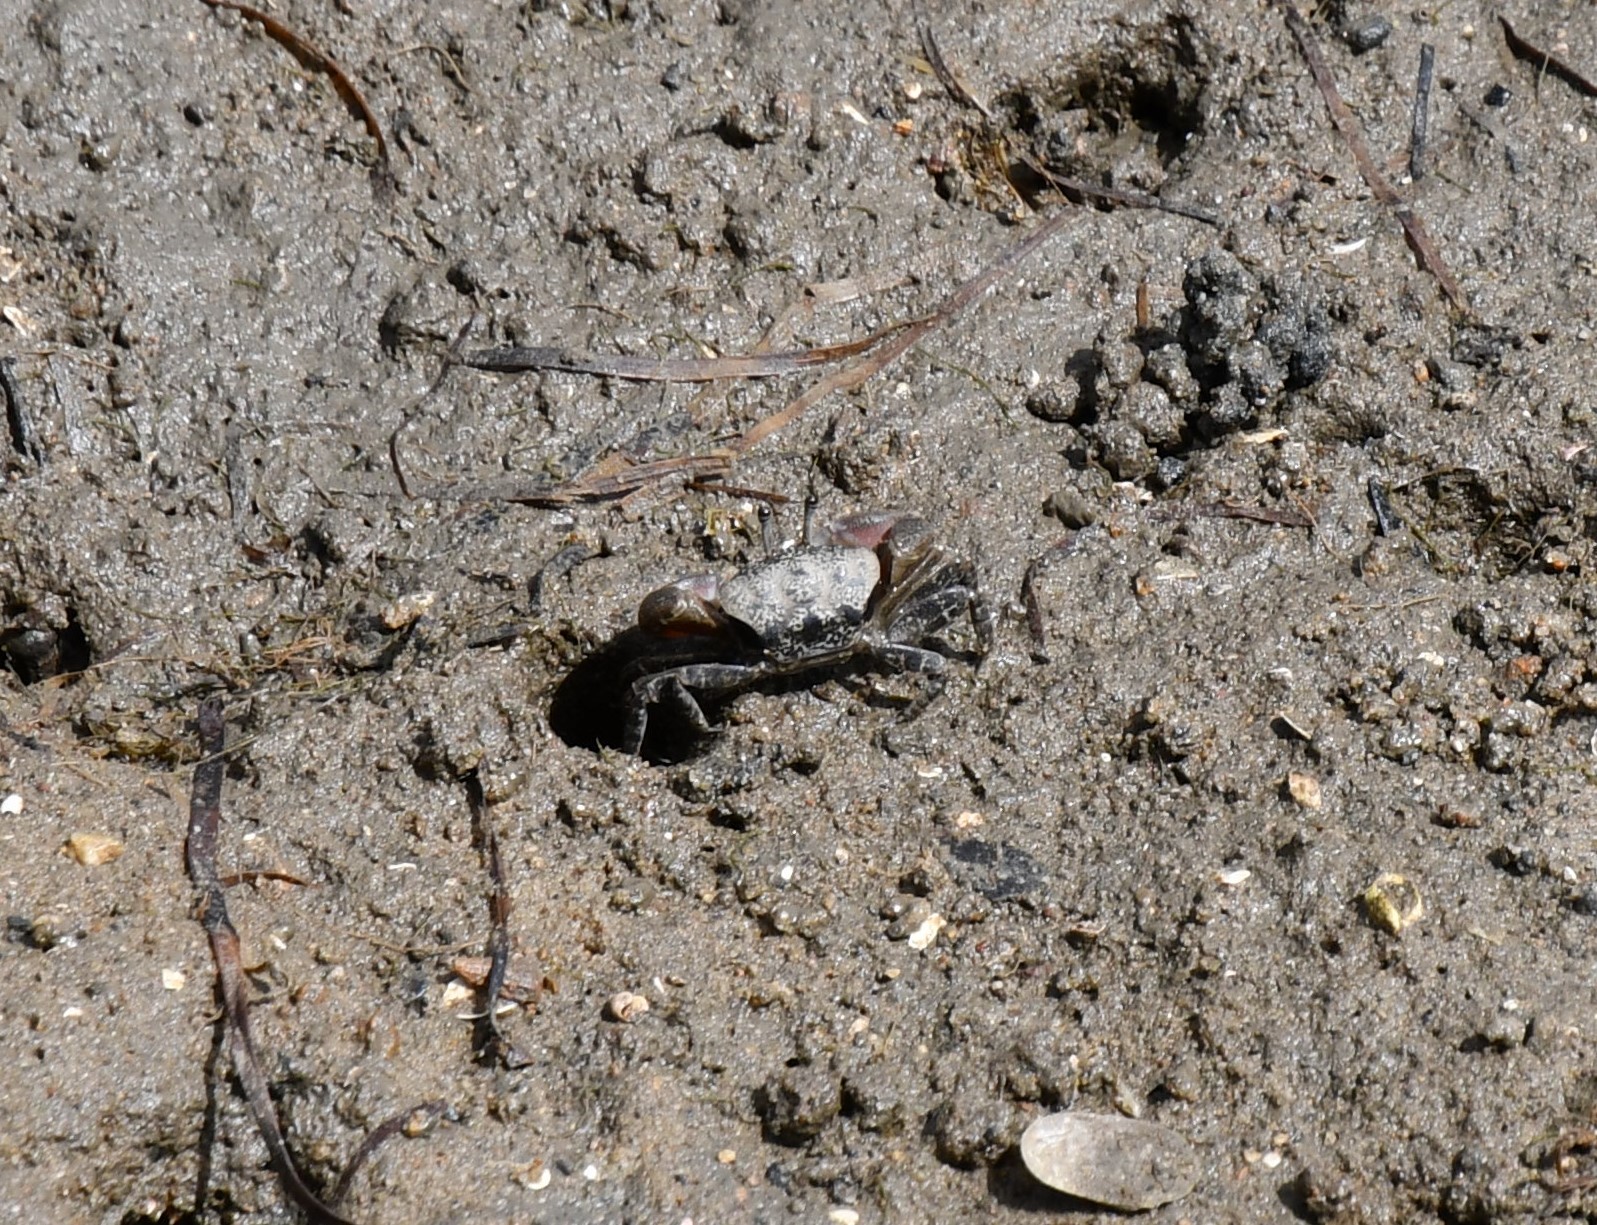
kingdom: Animalia
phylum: Arthropoda
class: Malacostraca
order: Decapoda
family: Heloeciidae
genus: Heloecius
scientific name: Heloecius cordiformis
